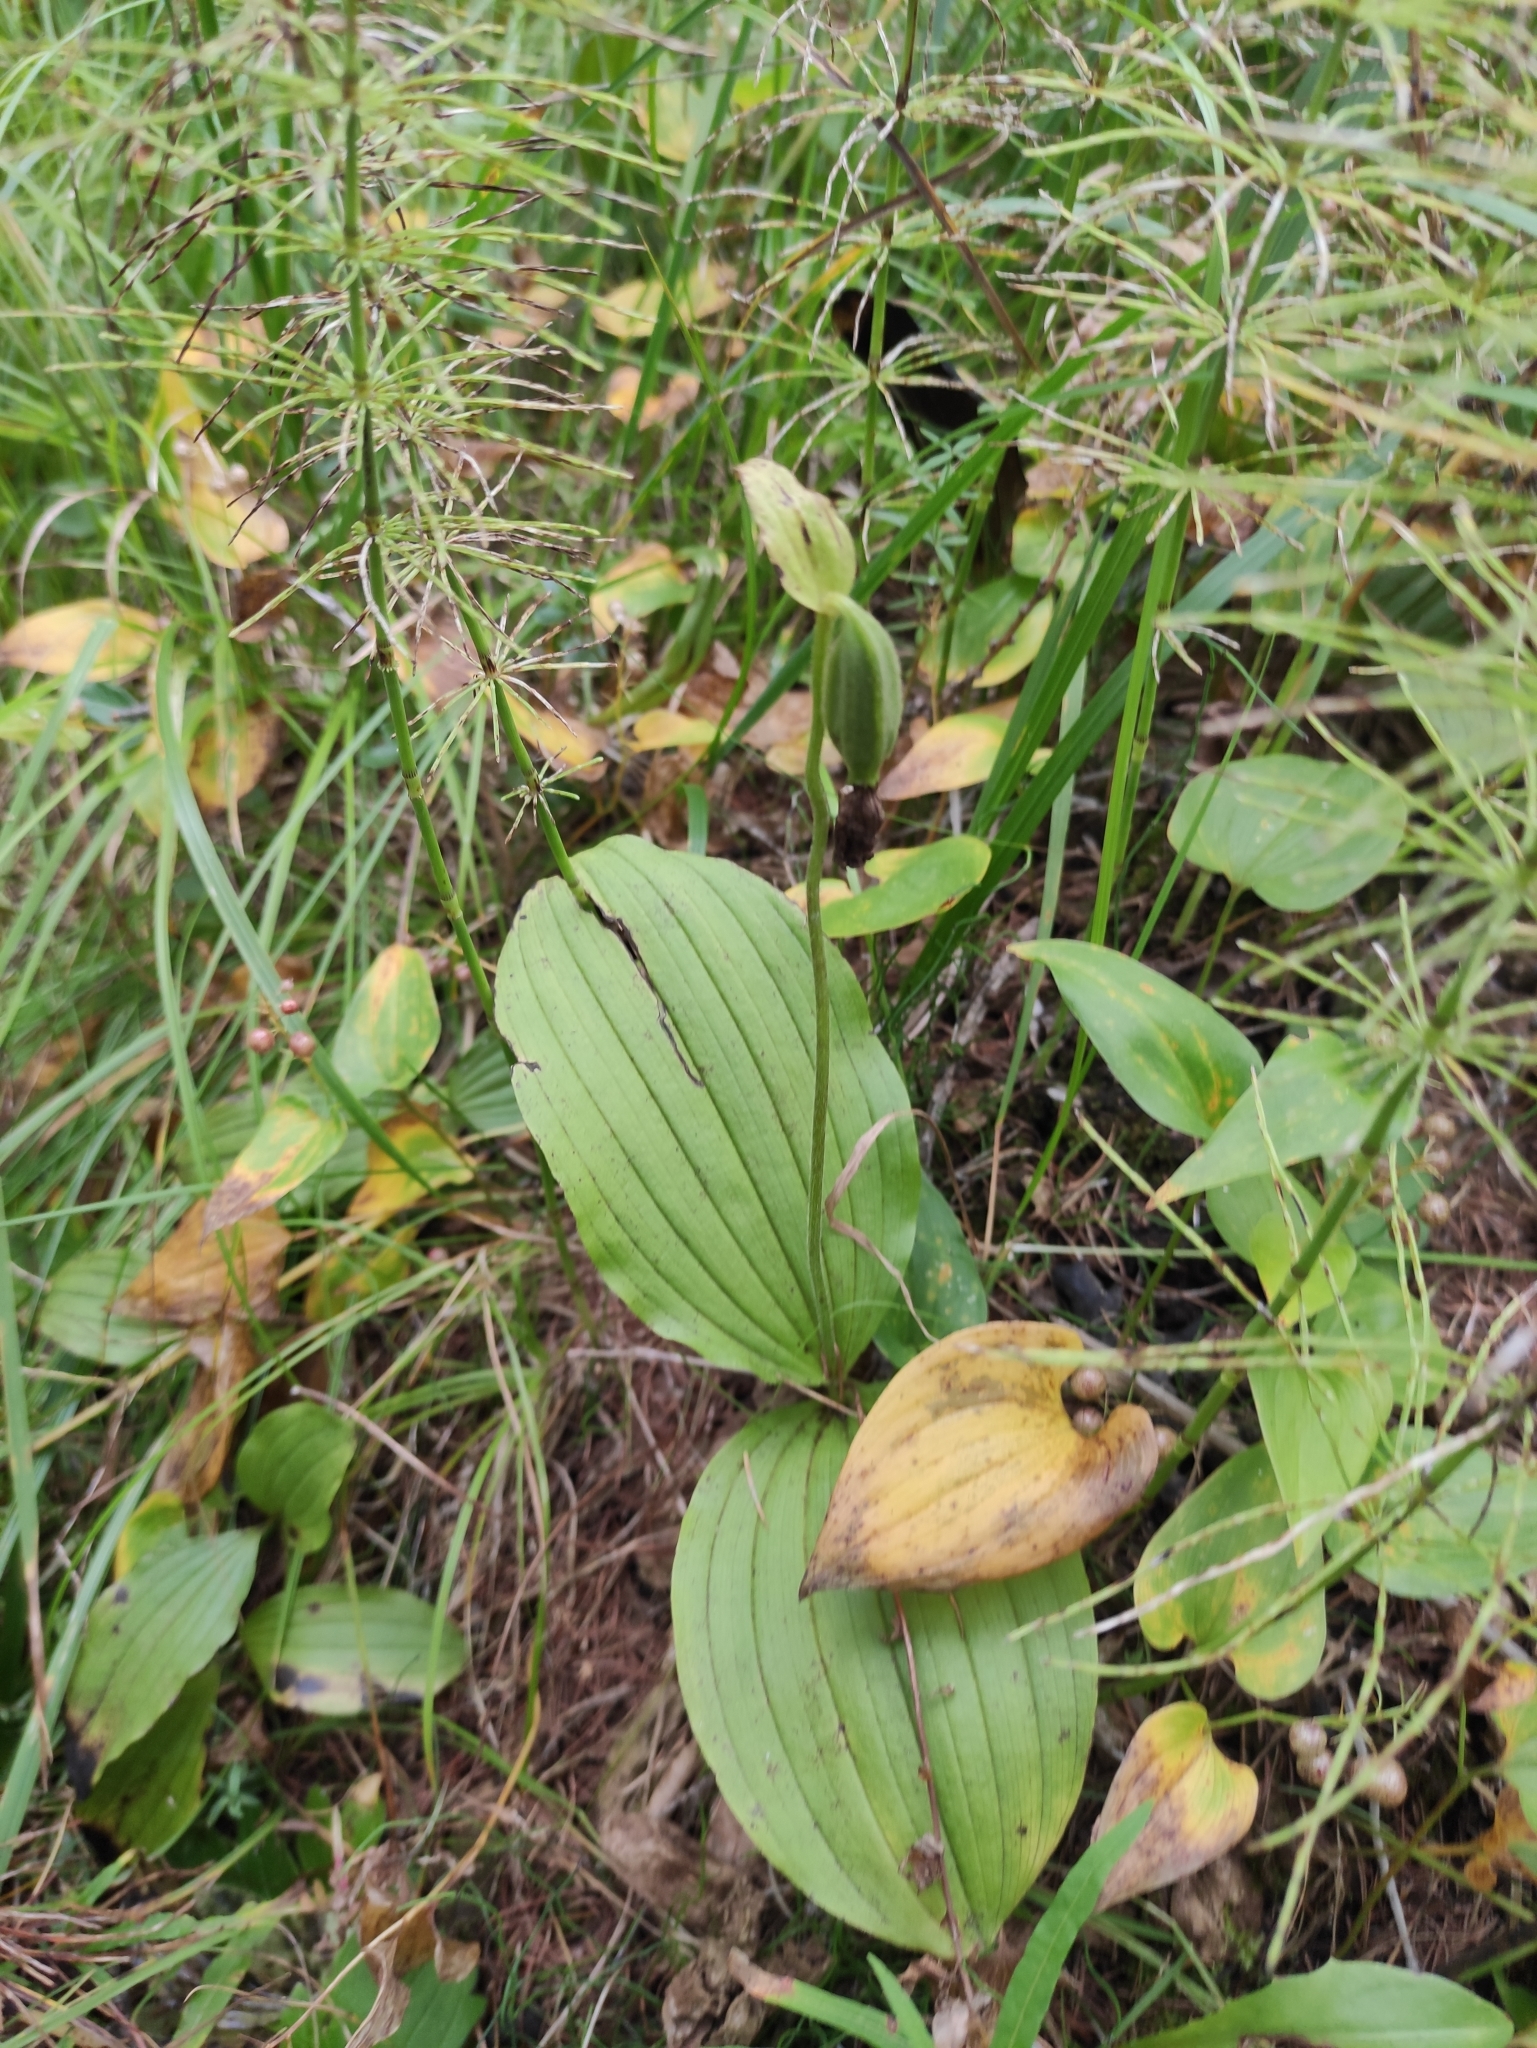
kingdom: Plantae
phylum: Tracheophyta
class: Liliopsida
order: Asparagales
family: Orchidaceae
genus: Cypripedium
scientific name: Cypripedium guttatum
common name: Pink lady slipper
